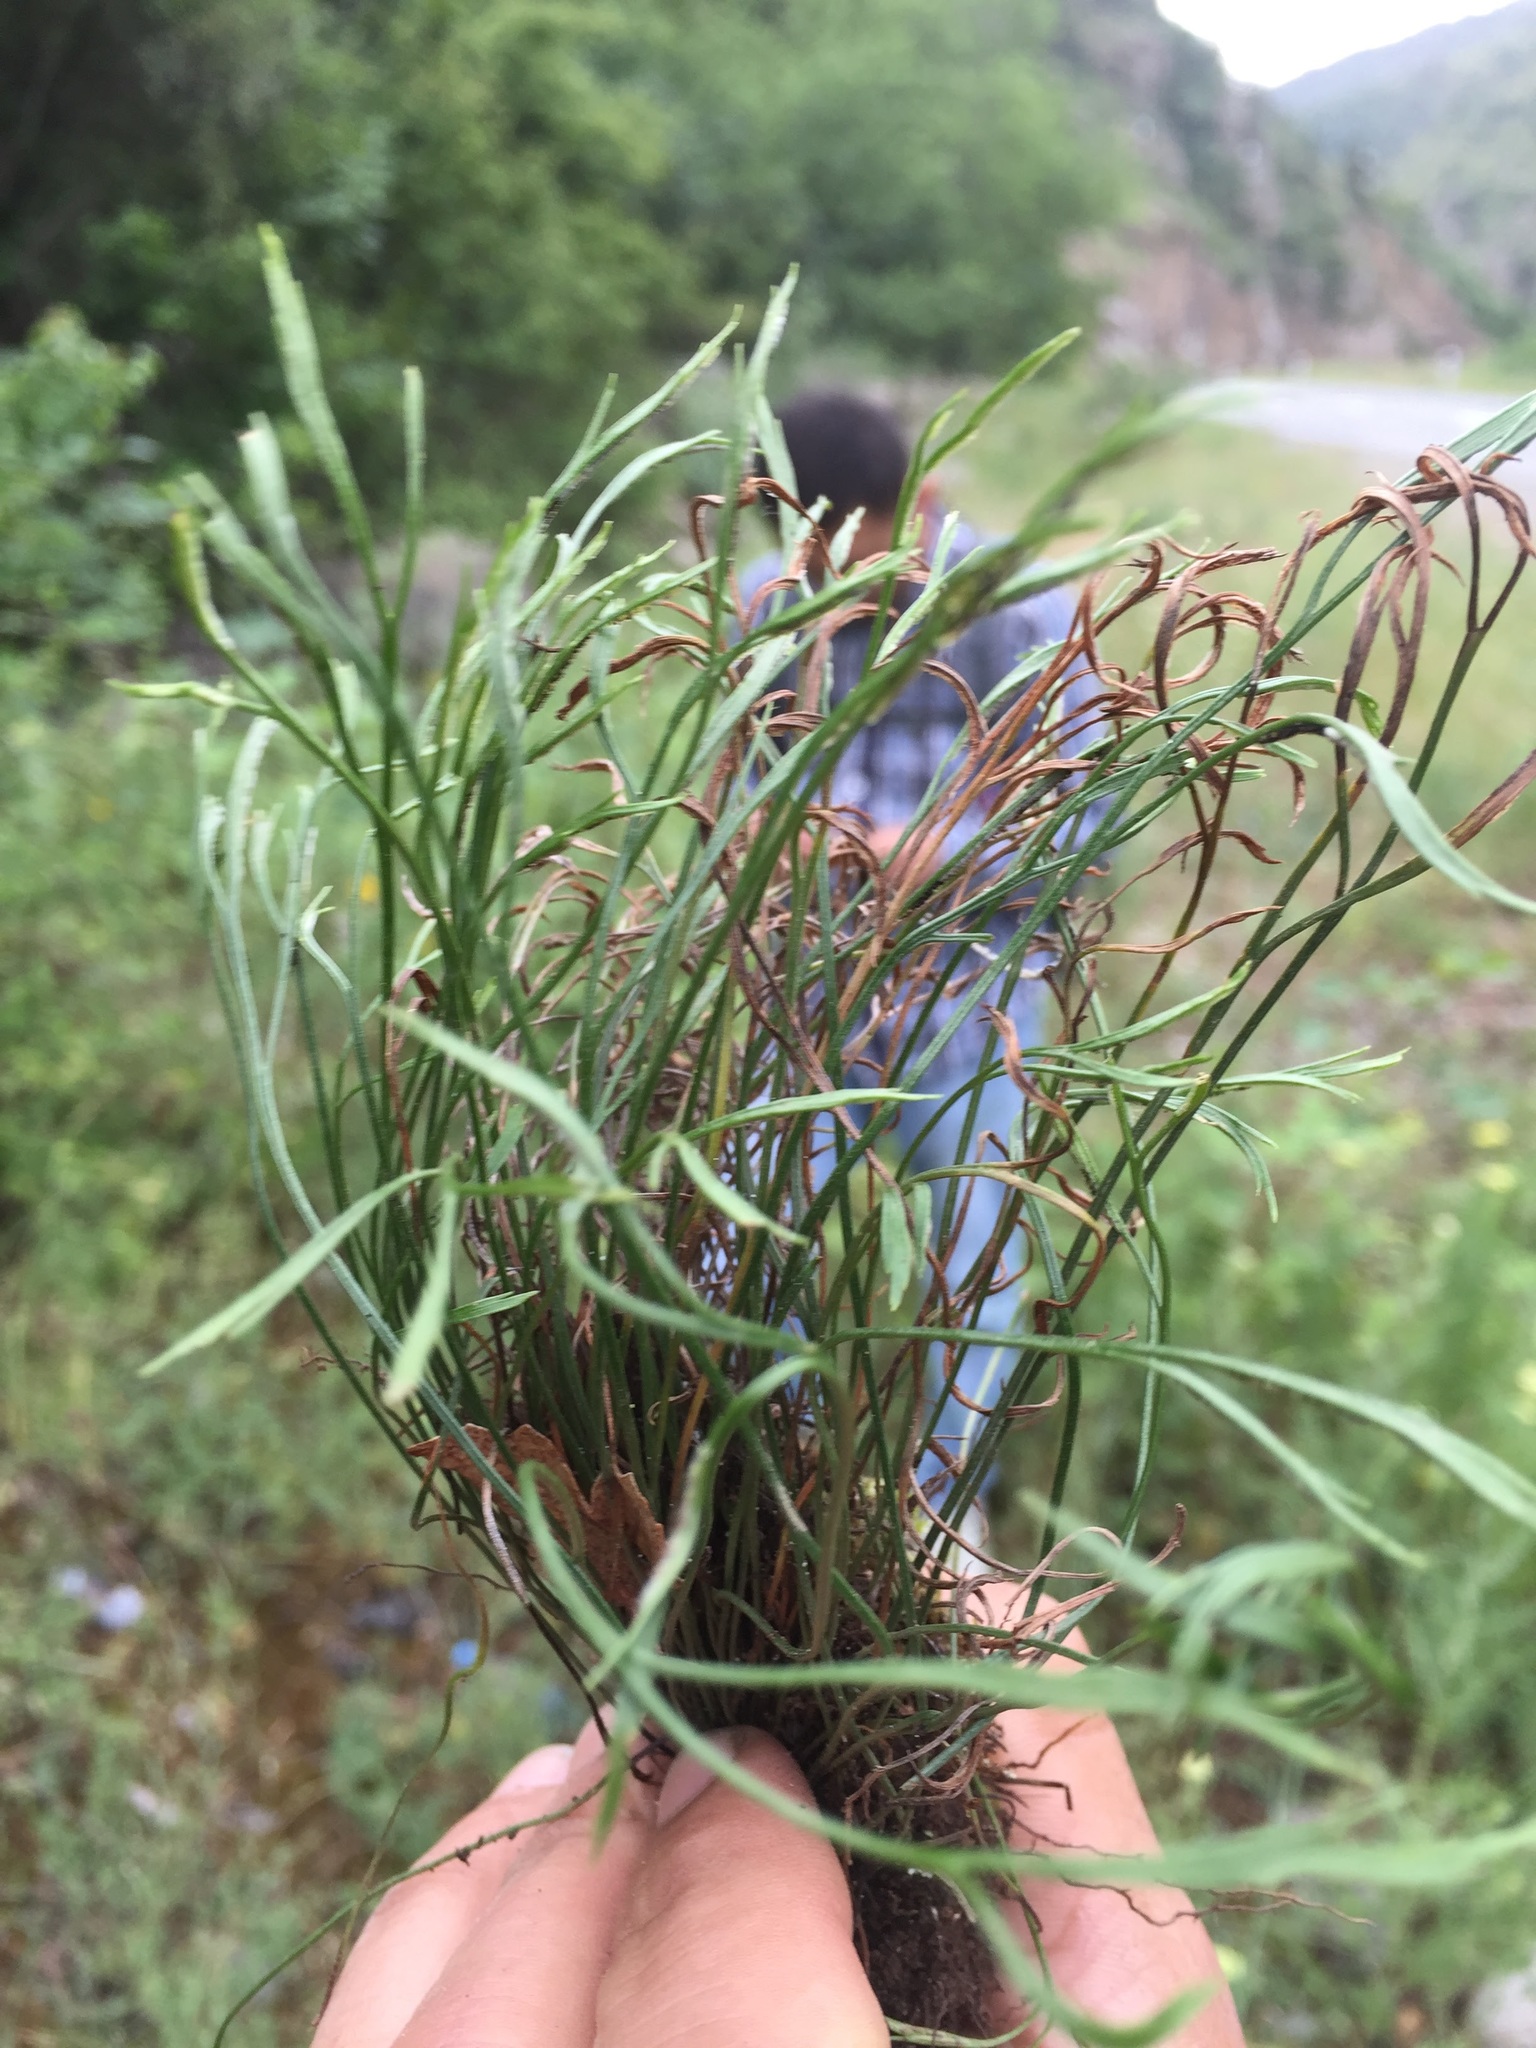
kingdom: Plantae
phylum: Tracheophyta
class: Polypodiopsida
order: Polypodiales
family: Aspleniaceae
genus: Asplenium
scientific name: Asplenium septentrionale
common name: Forked spleenwort
